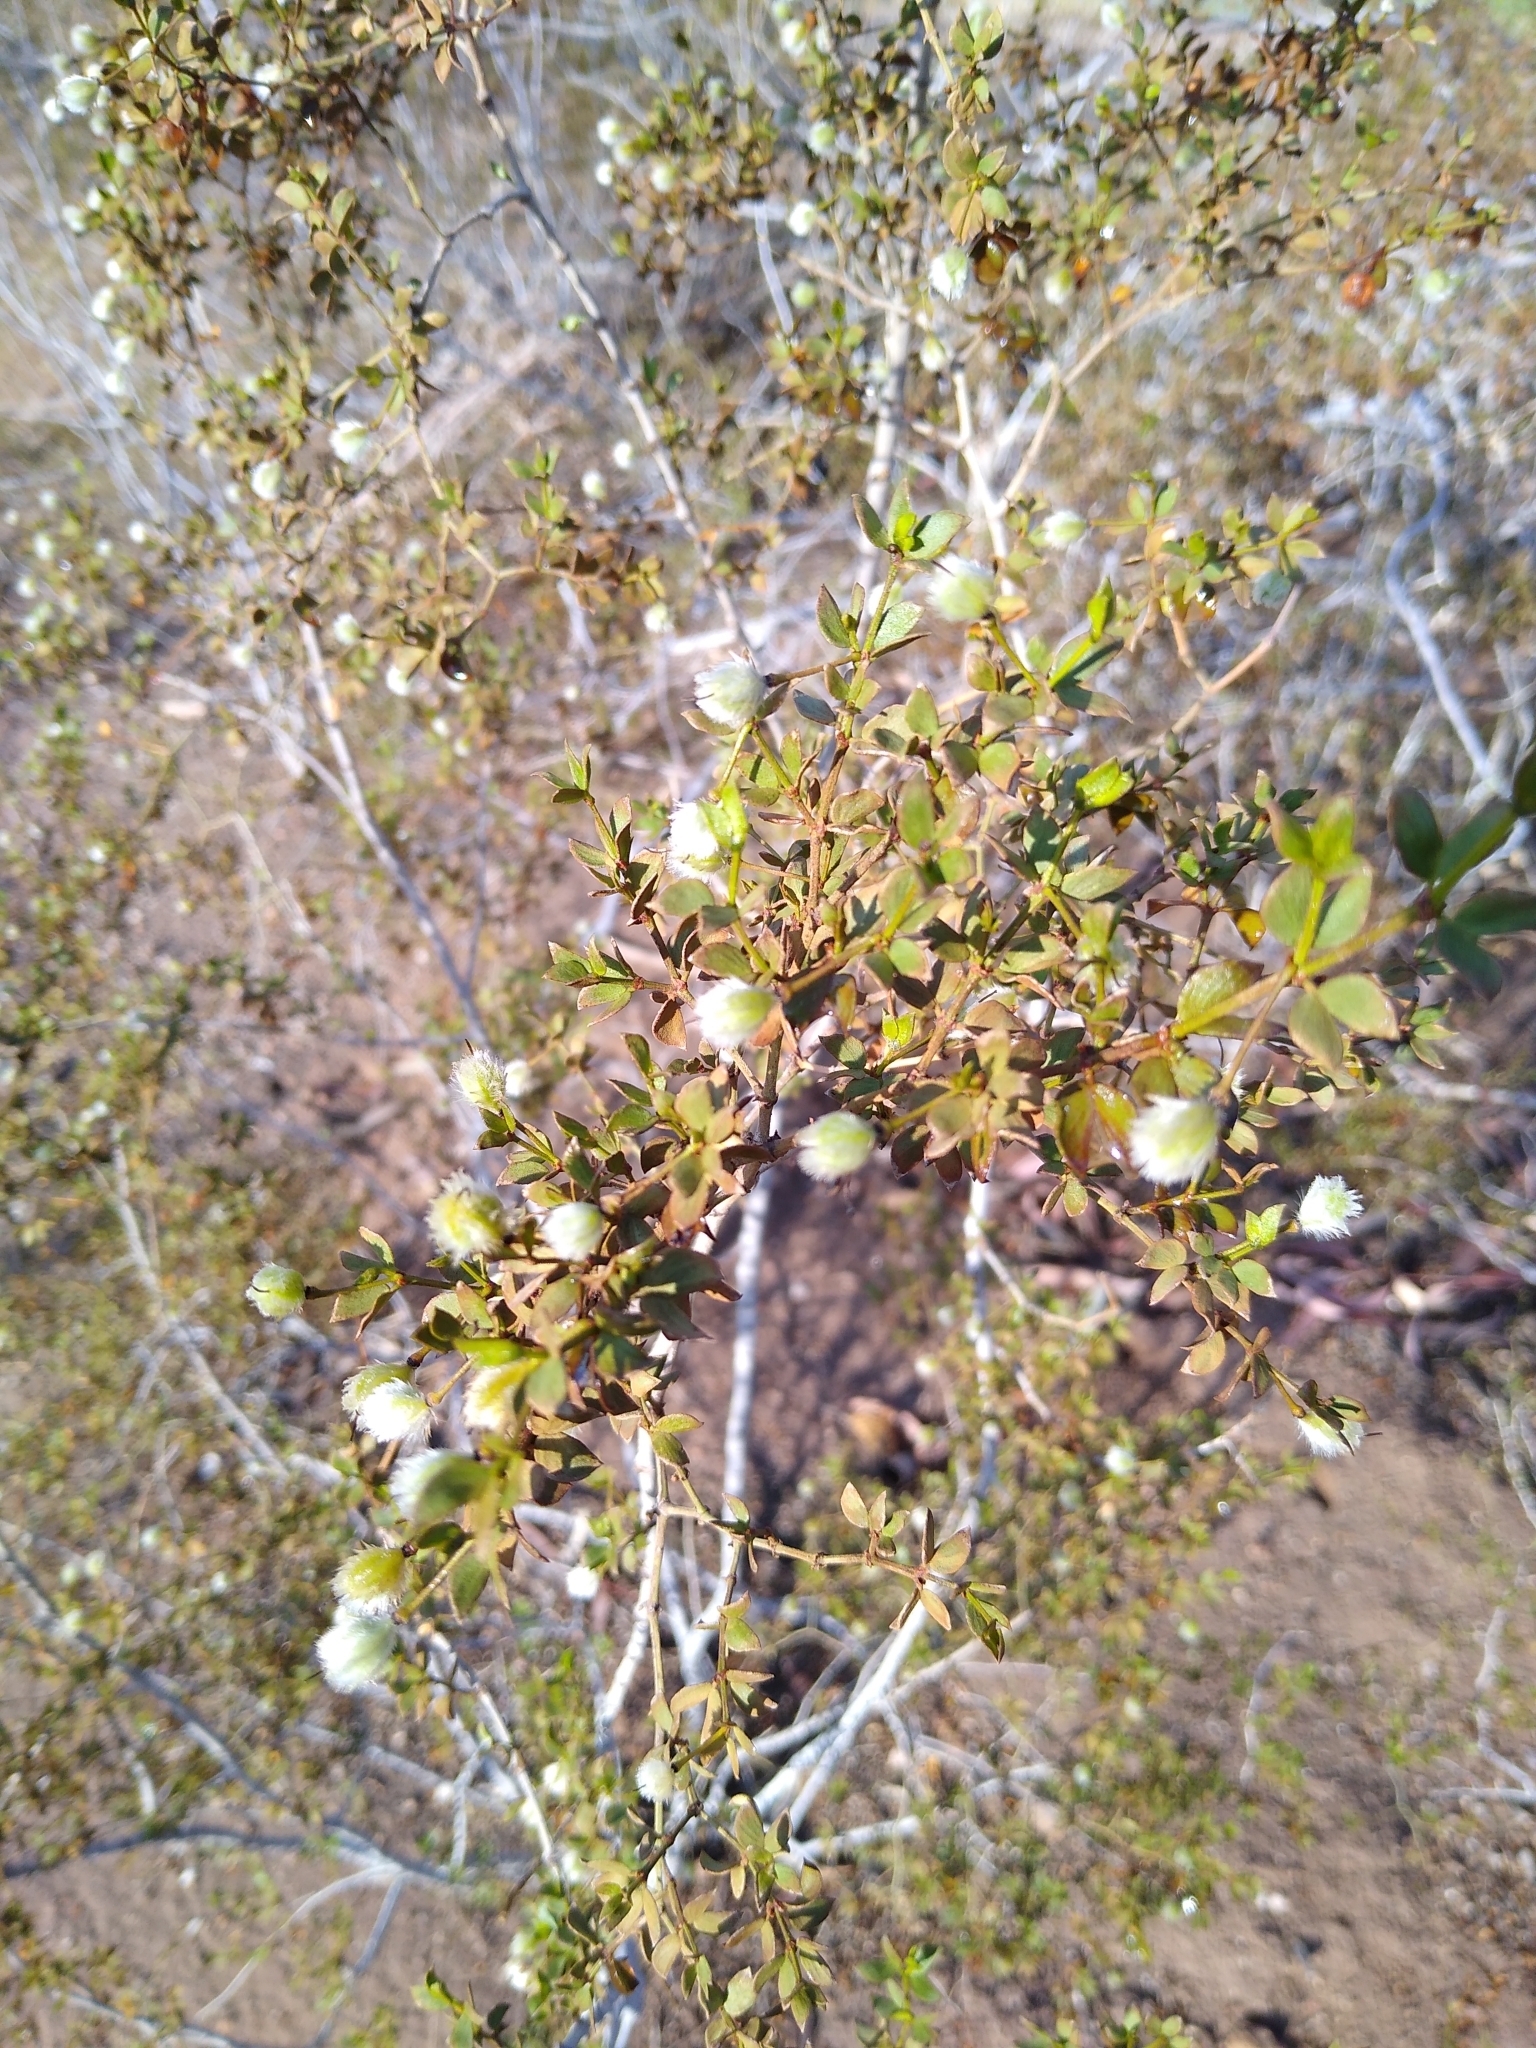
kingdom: Plantae
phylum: Tracheophyta
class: Magnoliopsida
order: Zygophyllales
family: Zygophyllaceae
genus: Larrea
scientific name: Larrea tridentata
